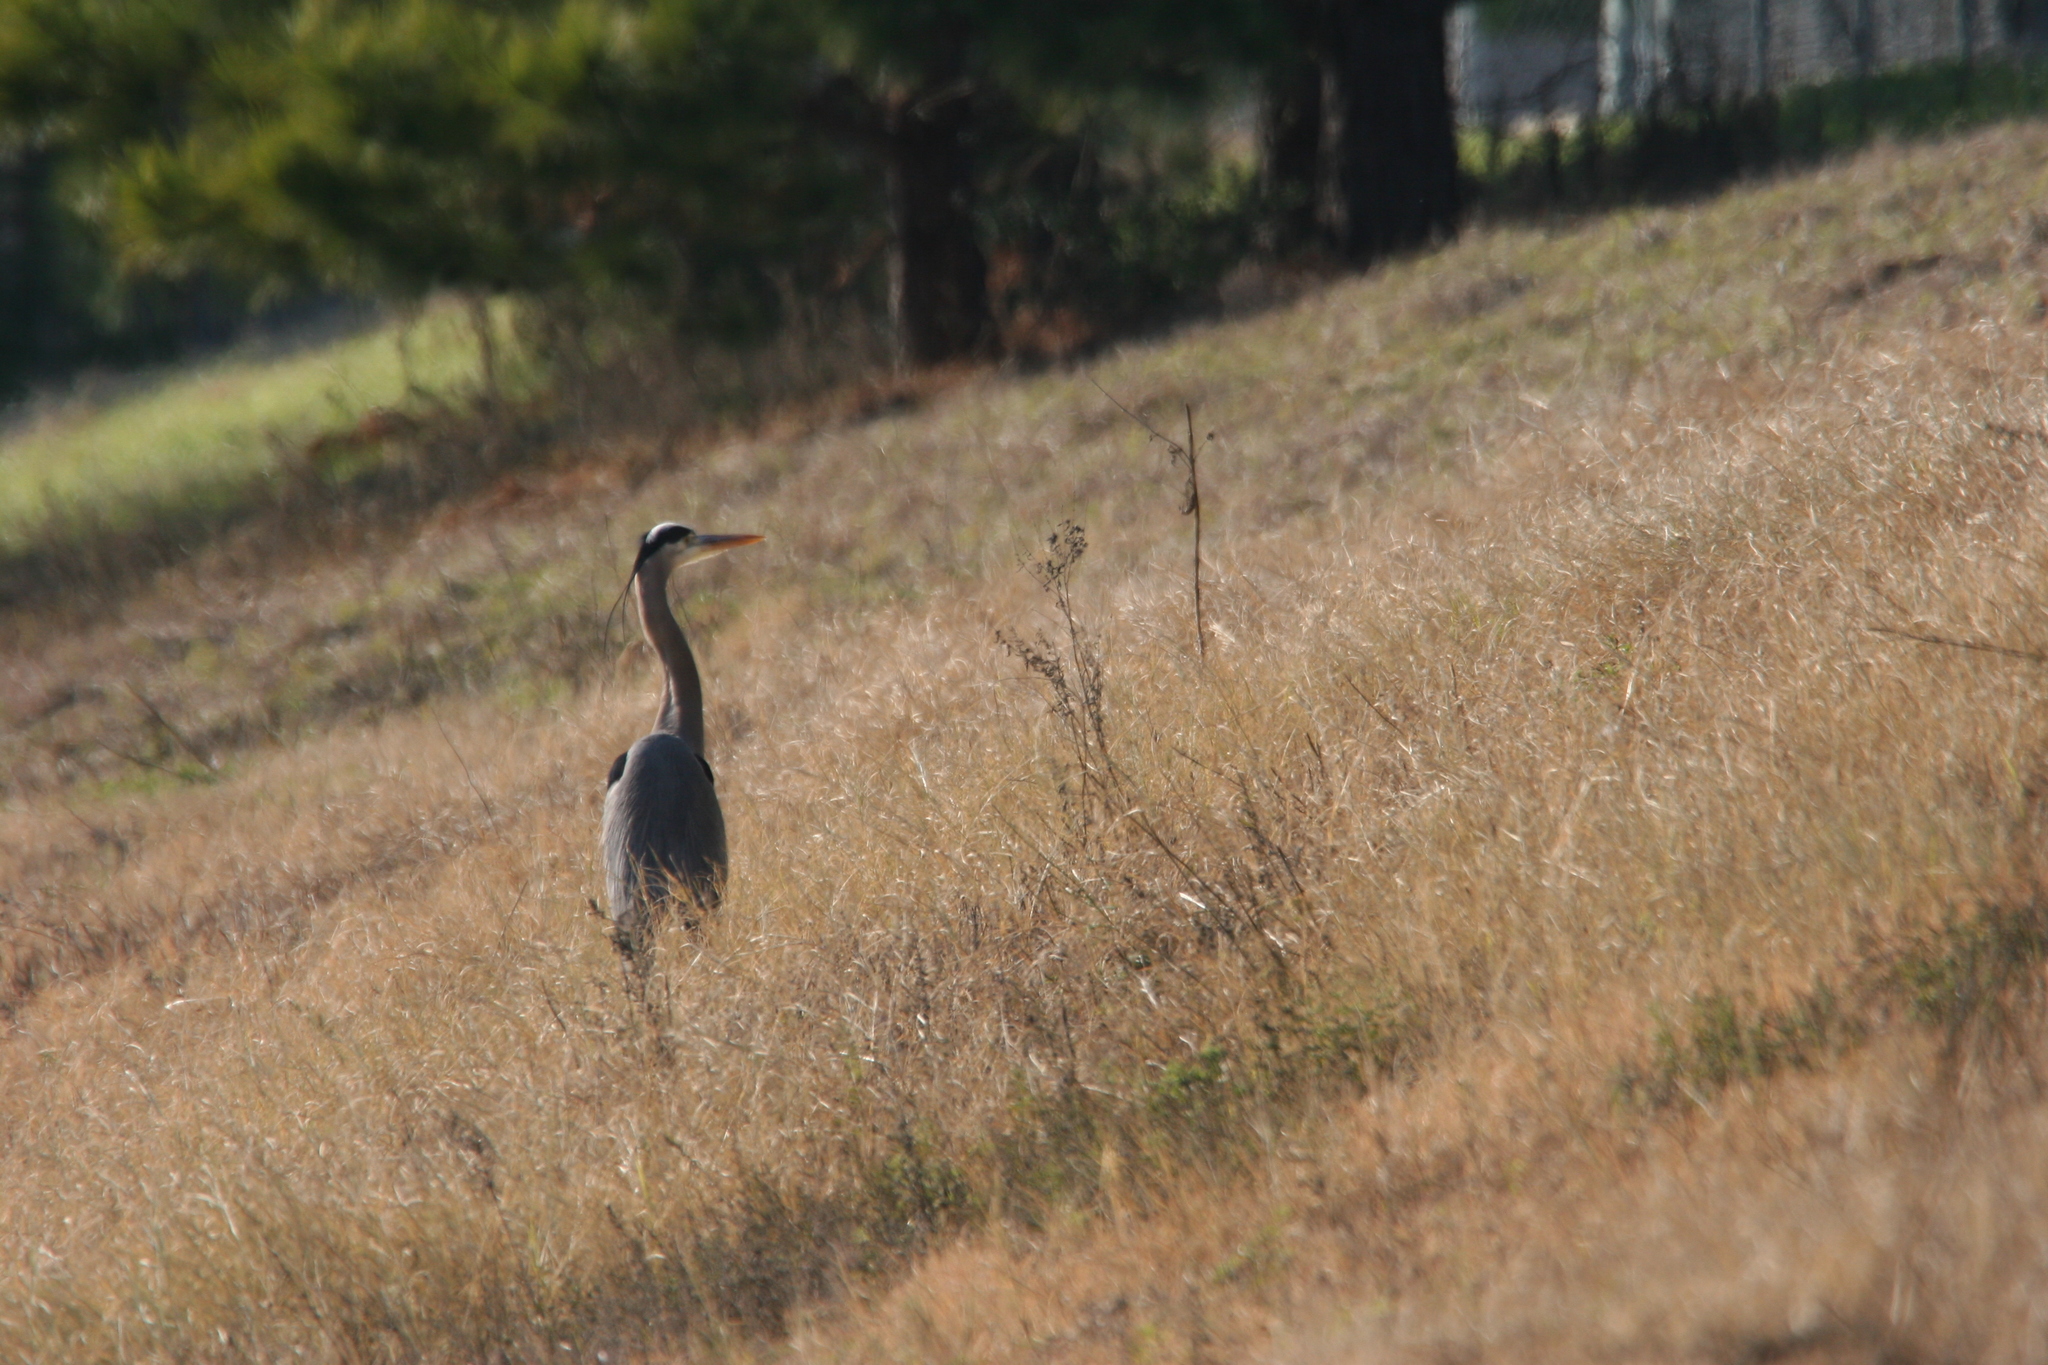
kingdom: Animalia
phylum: Chordata
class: Aves
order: Pelecaniformes
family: Ardeidae
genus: Ardea
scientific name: Ardea herodias
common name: Great blue heron
